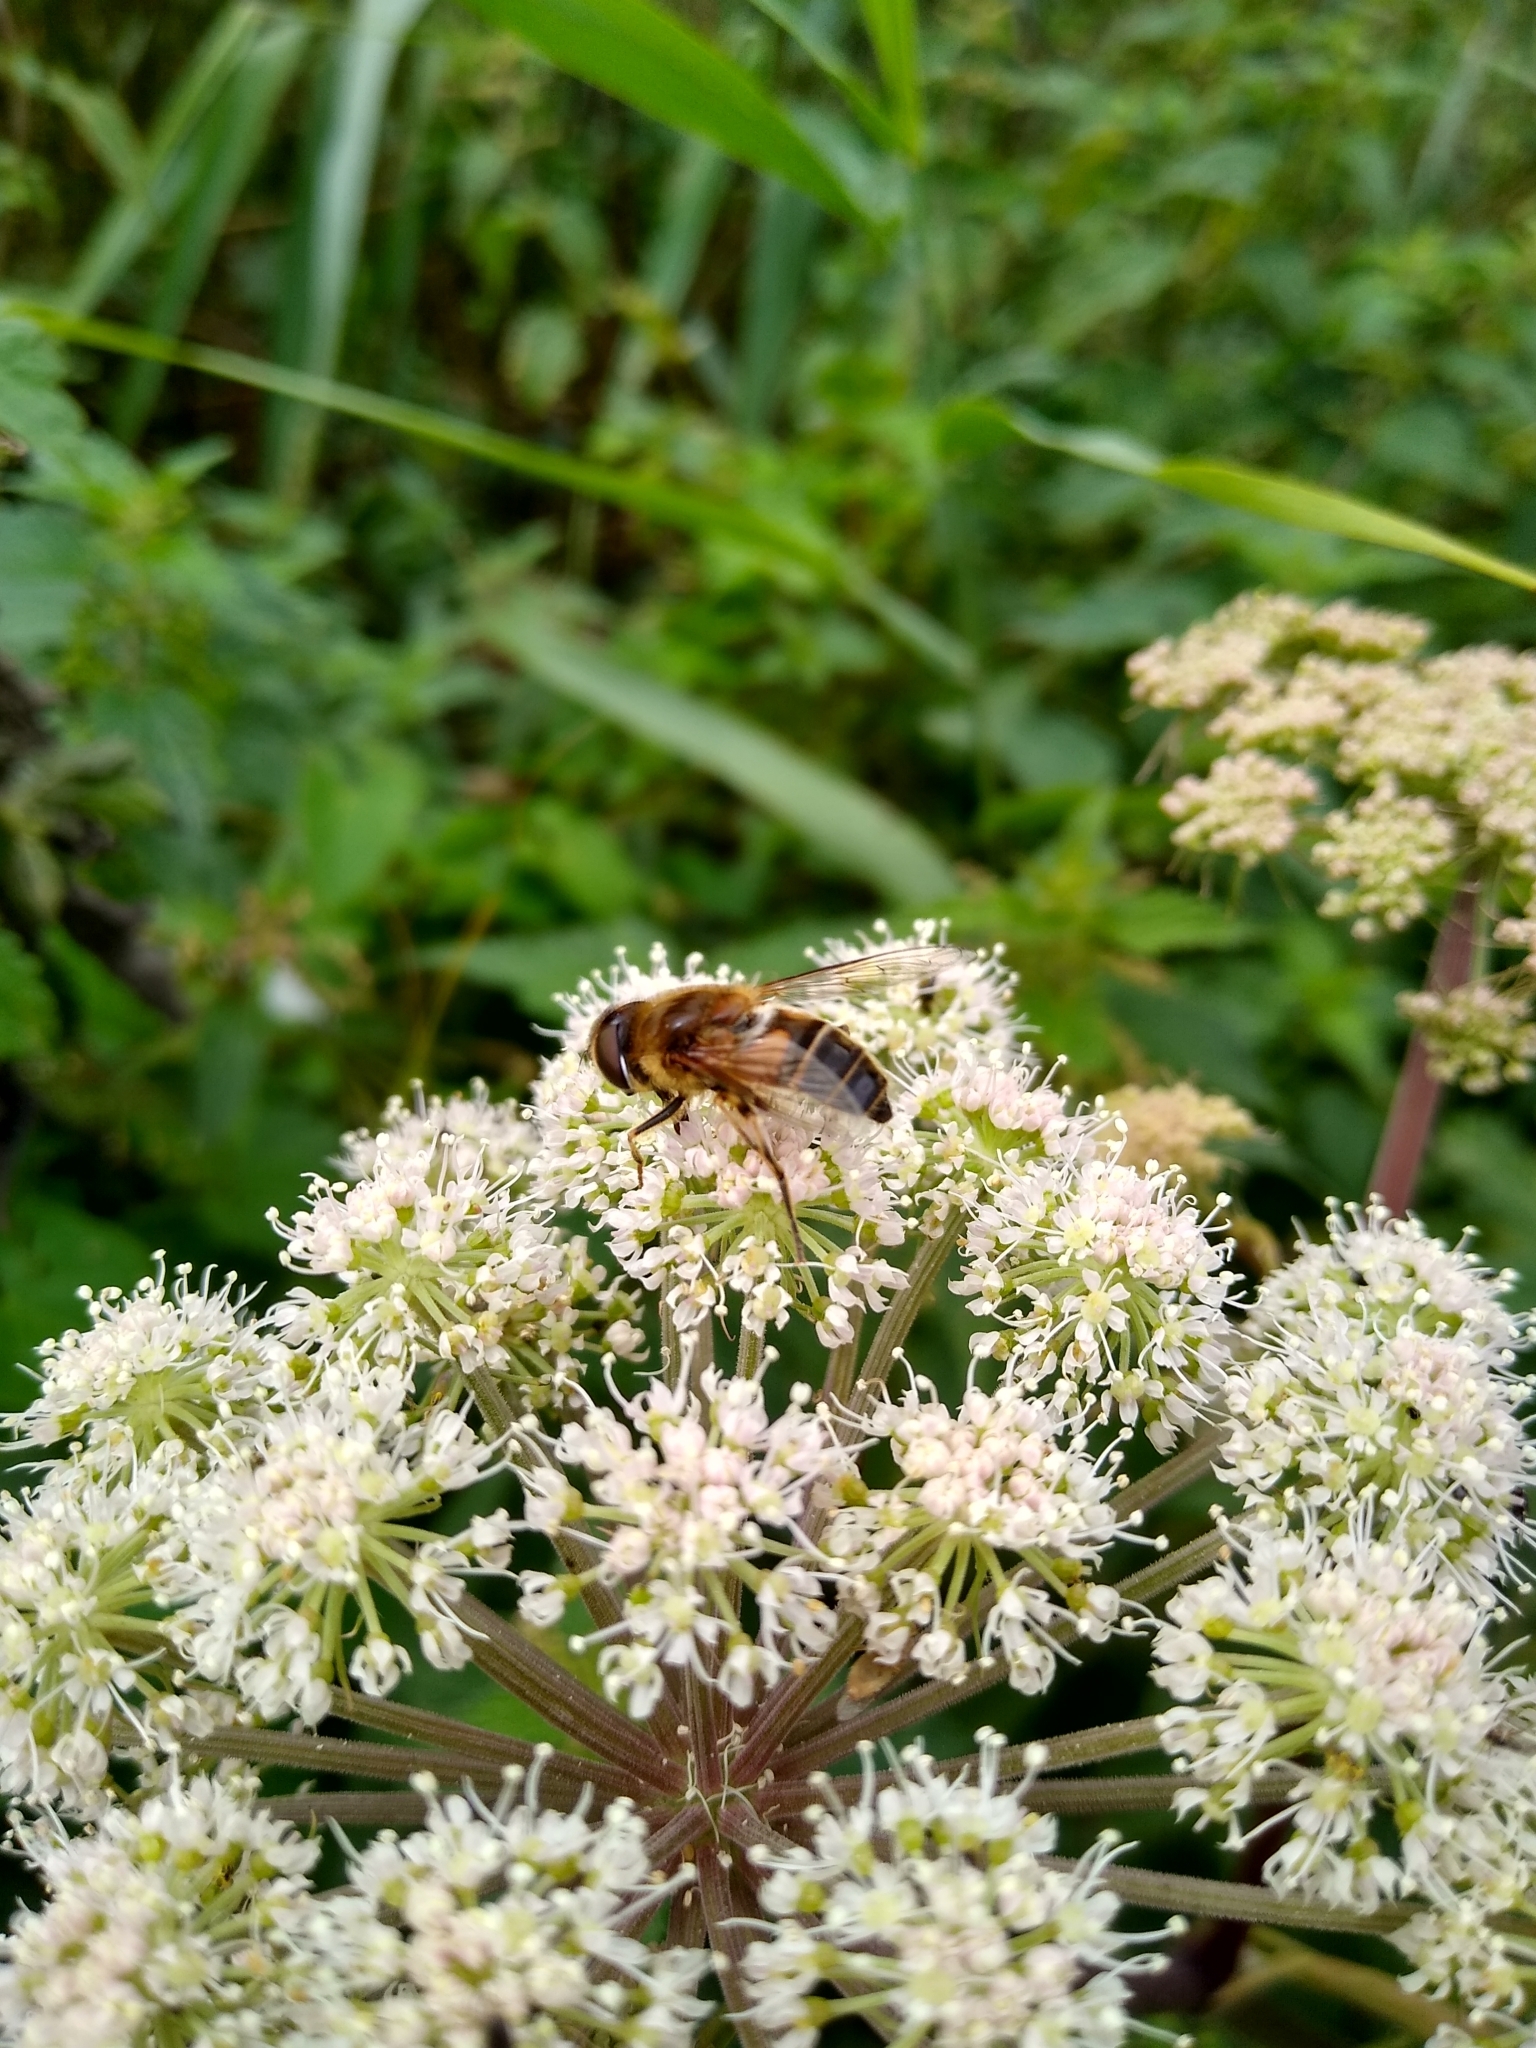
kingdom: Animalia
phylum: Arthropoda
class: Insecta
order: Diptera
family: Syrphidae
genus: Eristalis
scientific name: Eristalis
